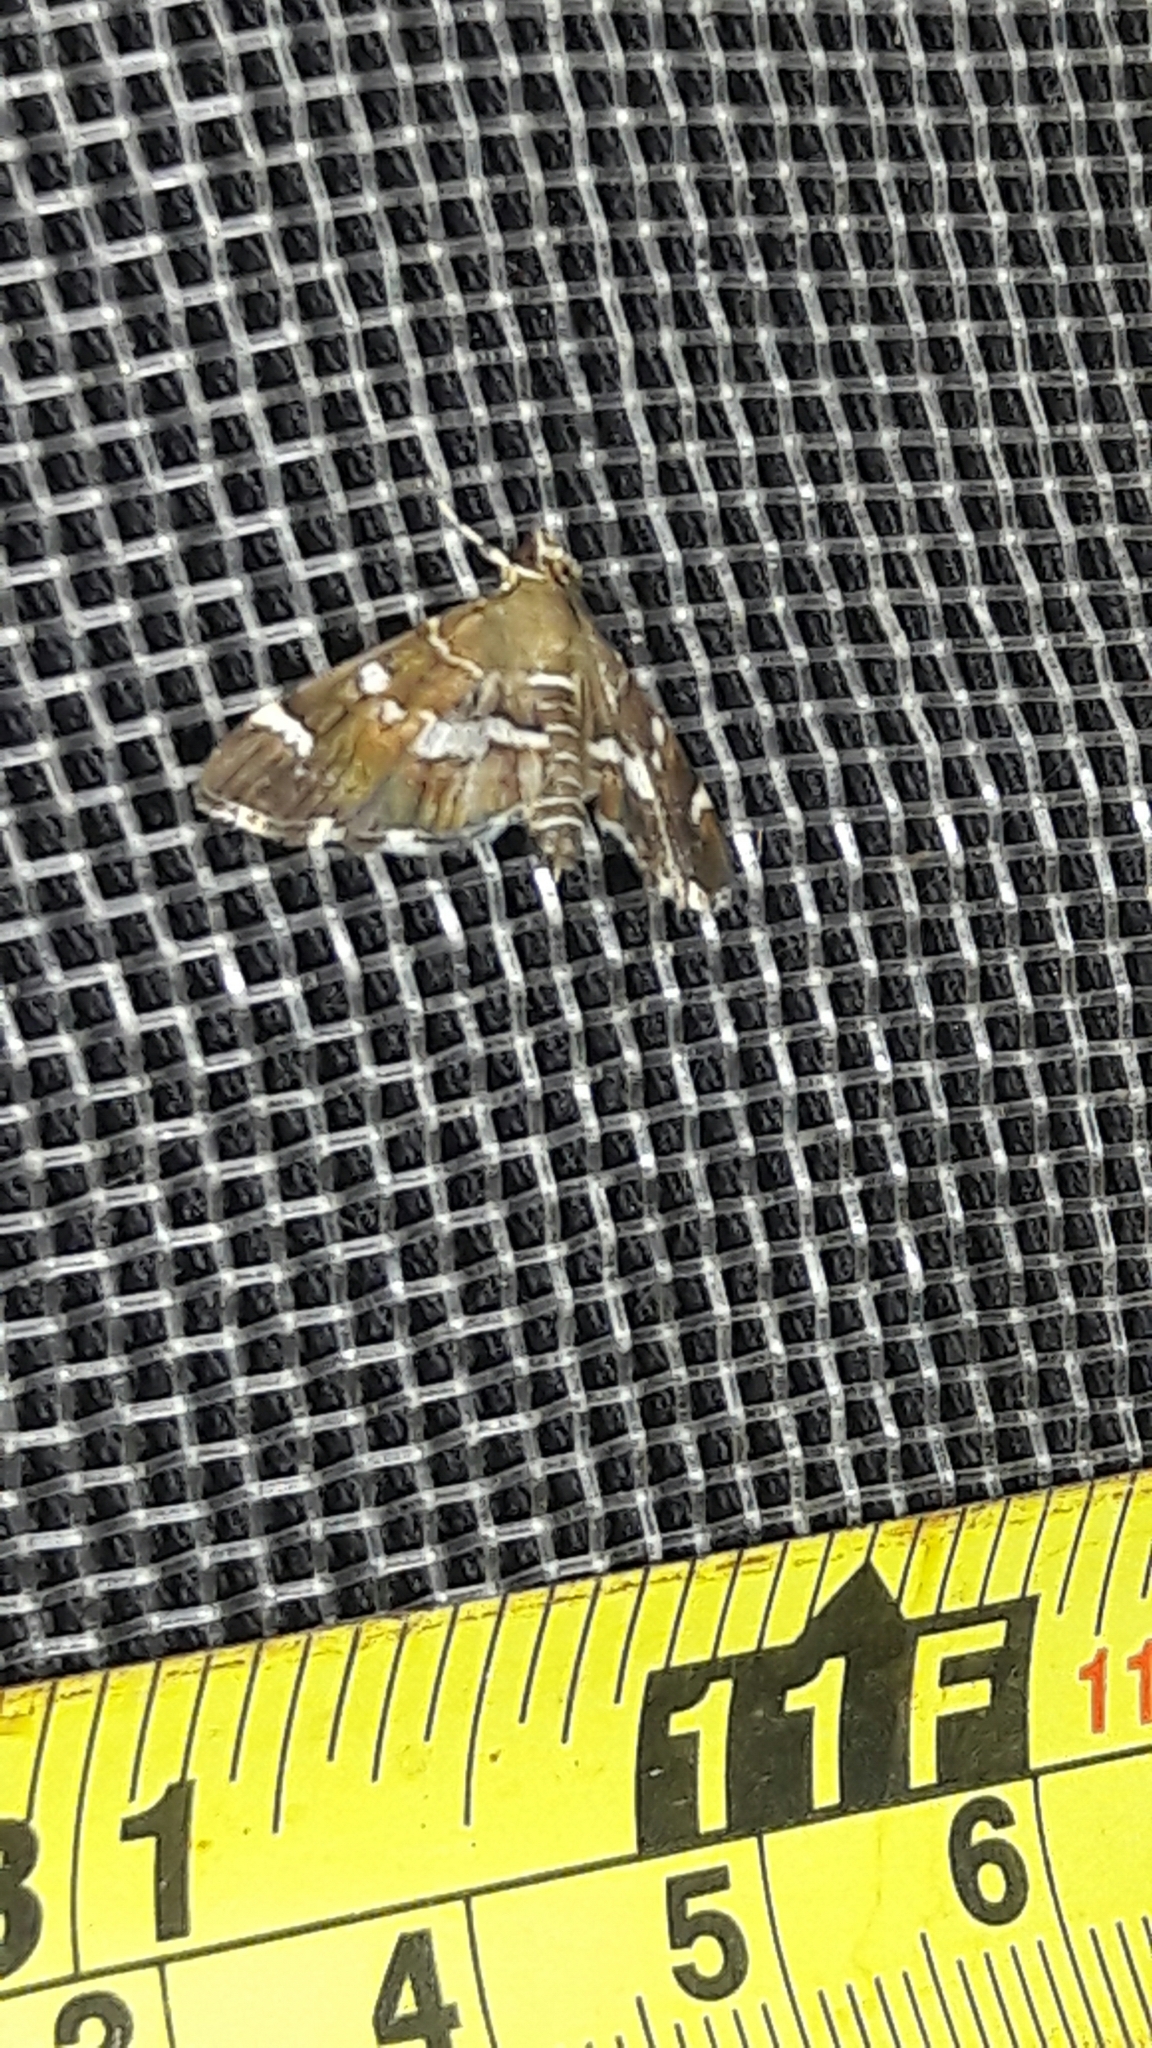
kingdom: Animalia
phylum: Arthropoda
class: Insecta
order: Lepidoptera
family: Crambidae
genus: Hymenia
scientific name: Hymenia perspectalis
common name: Spotted beet webworm
